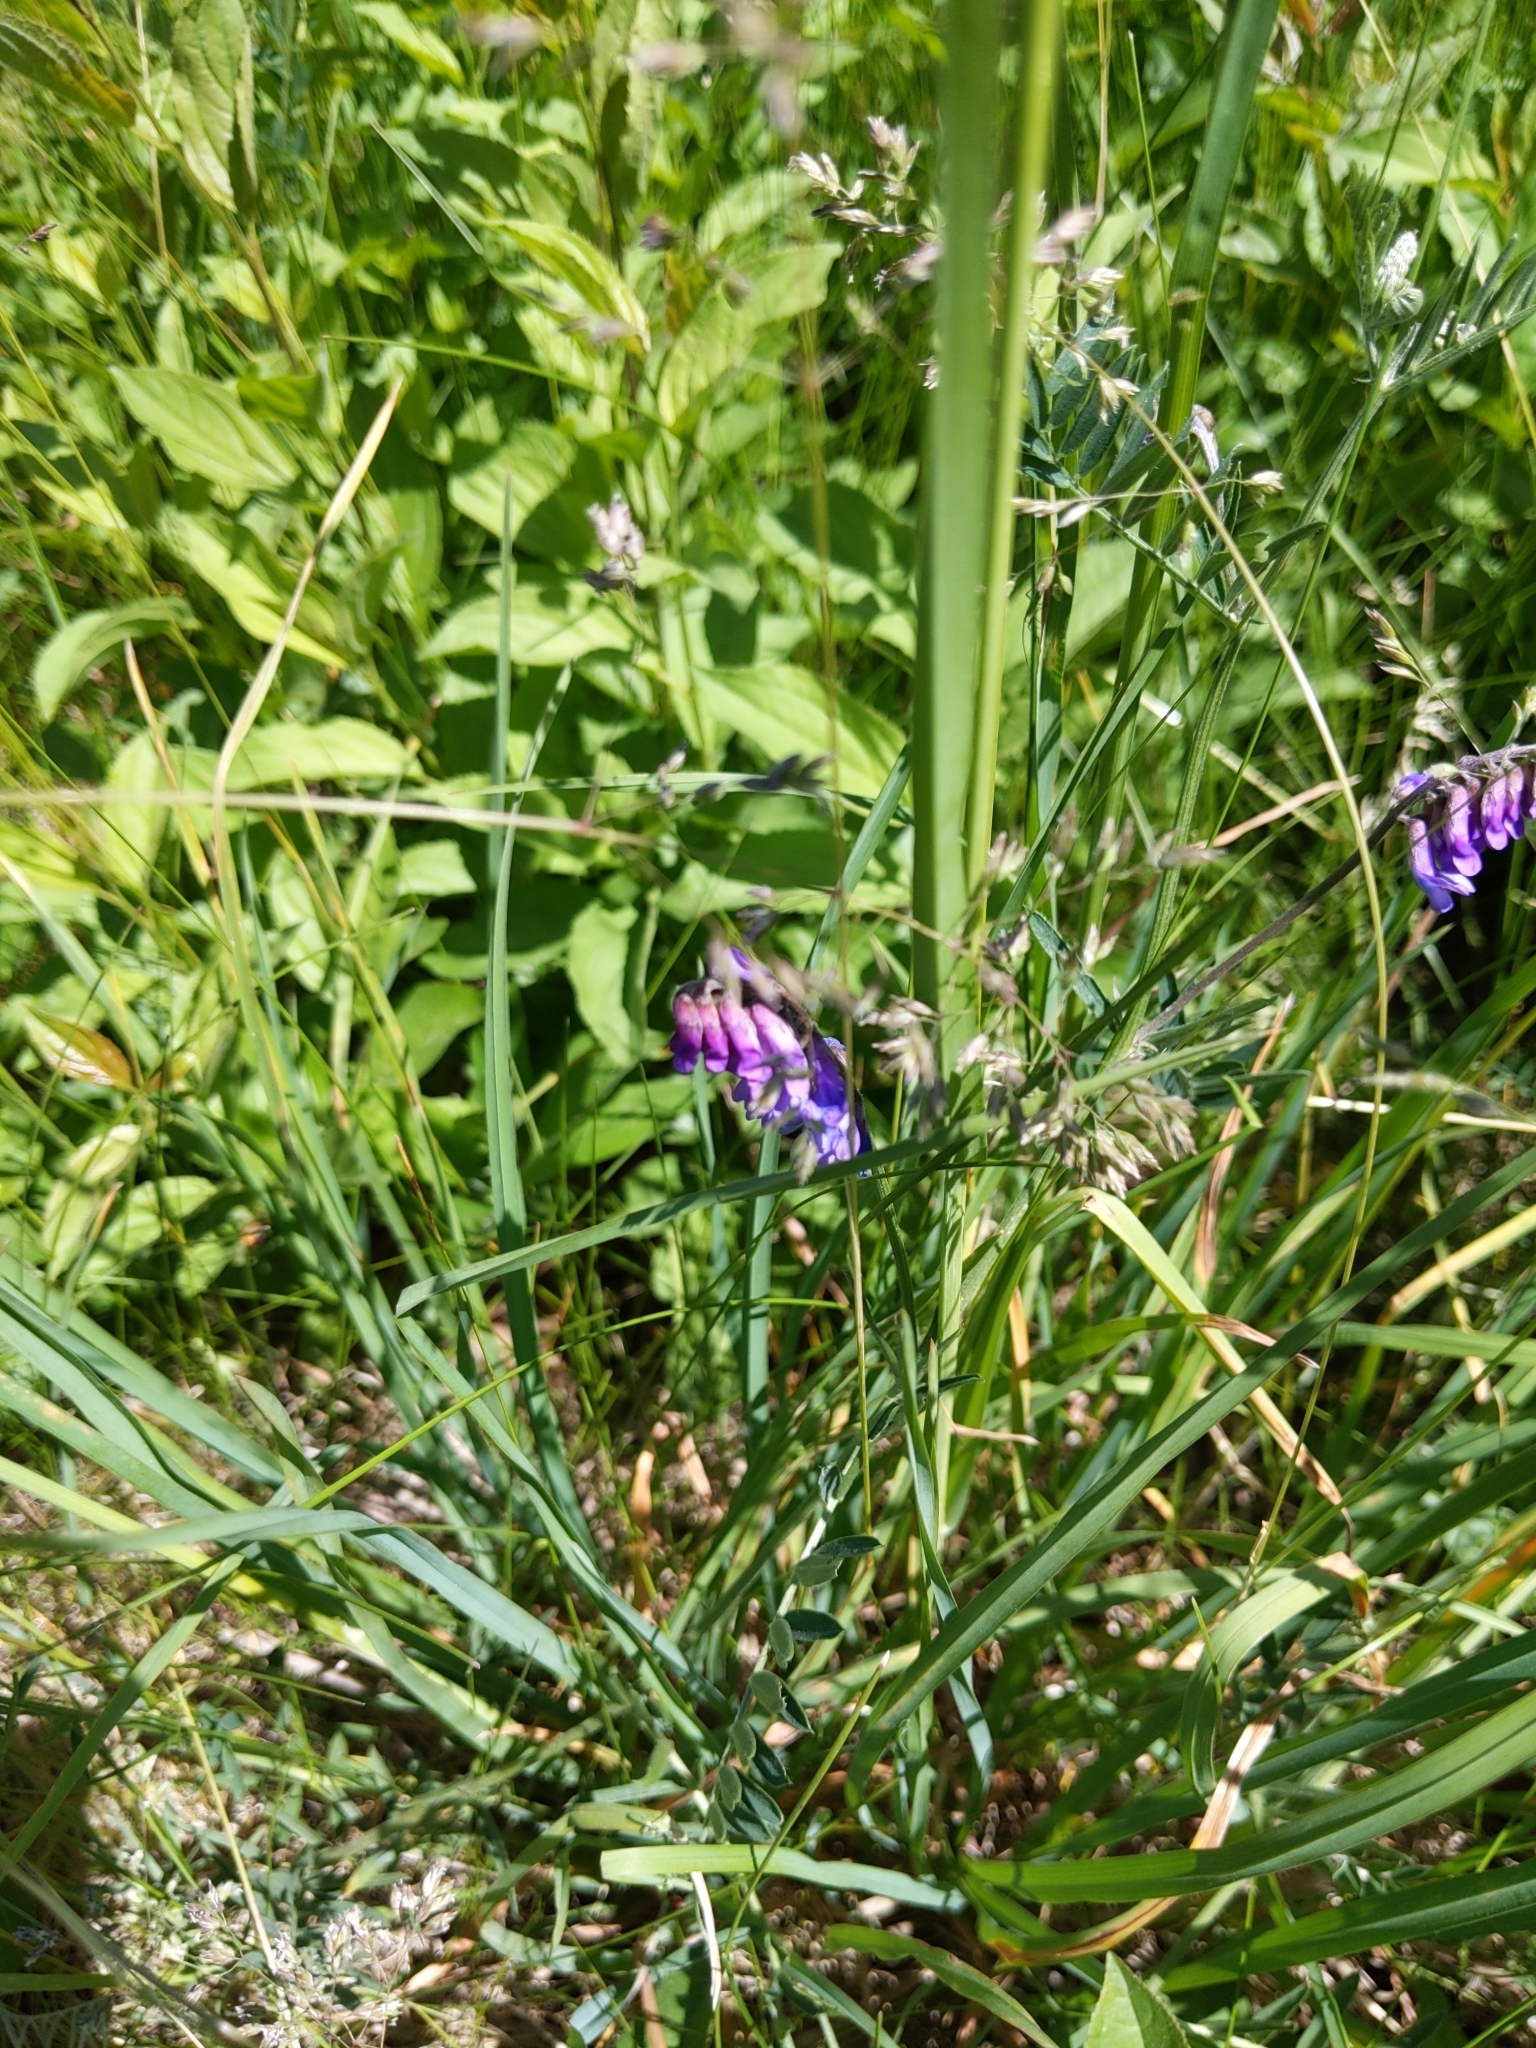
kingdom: Plantae
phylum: Tracheophyta
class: Magnoliopsida
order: Fabales
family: Fabaceae
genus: Vicia
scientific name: Vicia cracca
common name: Bird vetch
